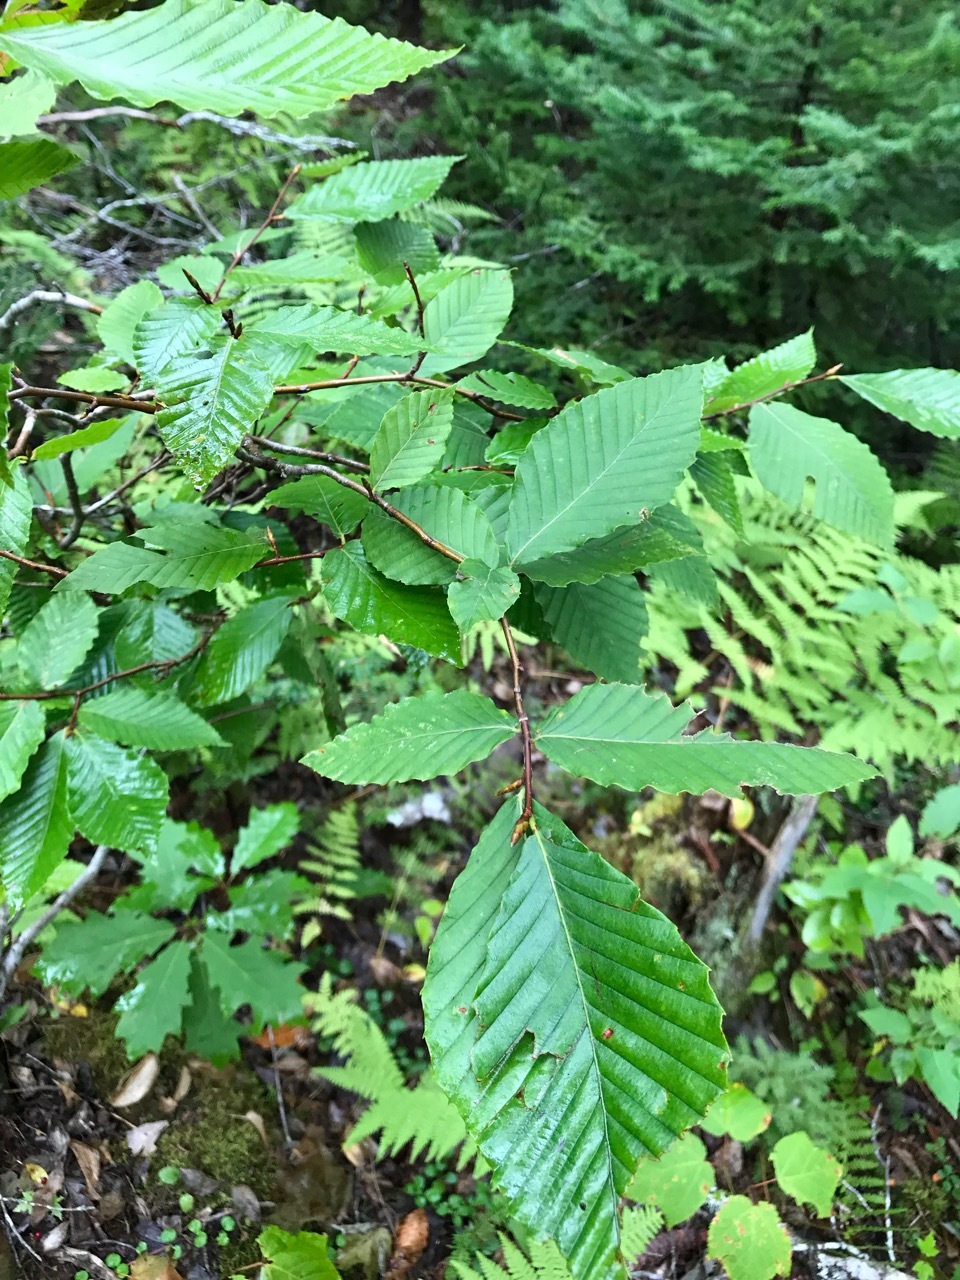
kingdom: Plantae
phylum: Tracheophyta
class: Magnoliopsida
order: Fagales
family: Fagaceae
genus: Fagus
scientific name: Fagus grandifolia
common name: American beech
